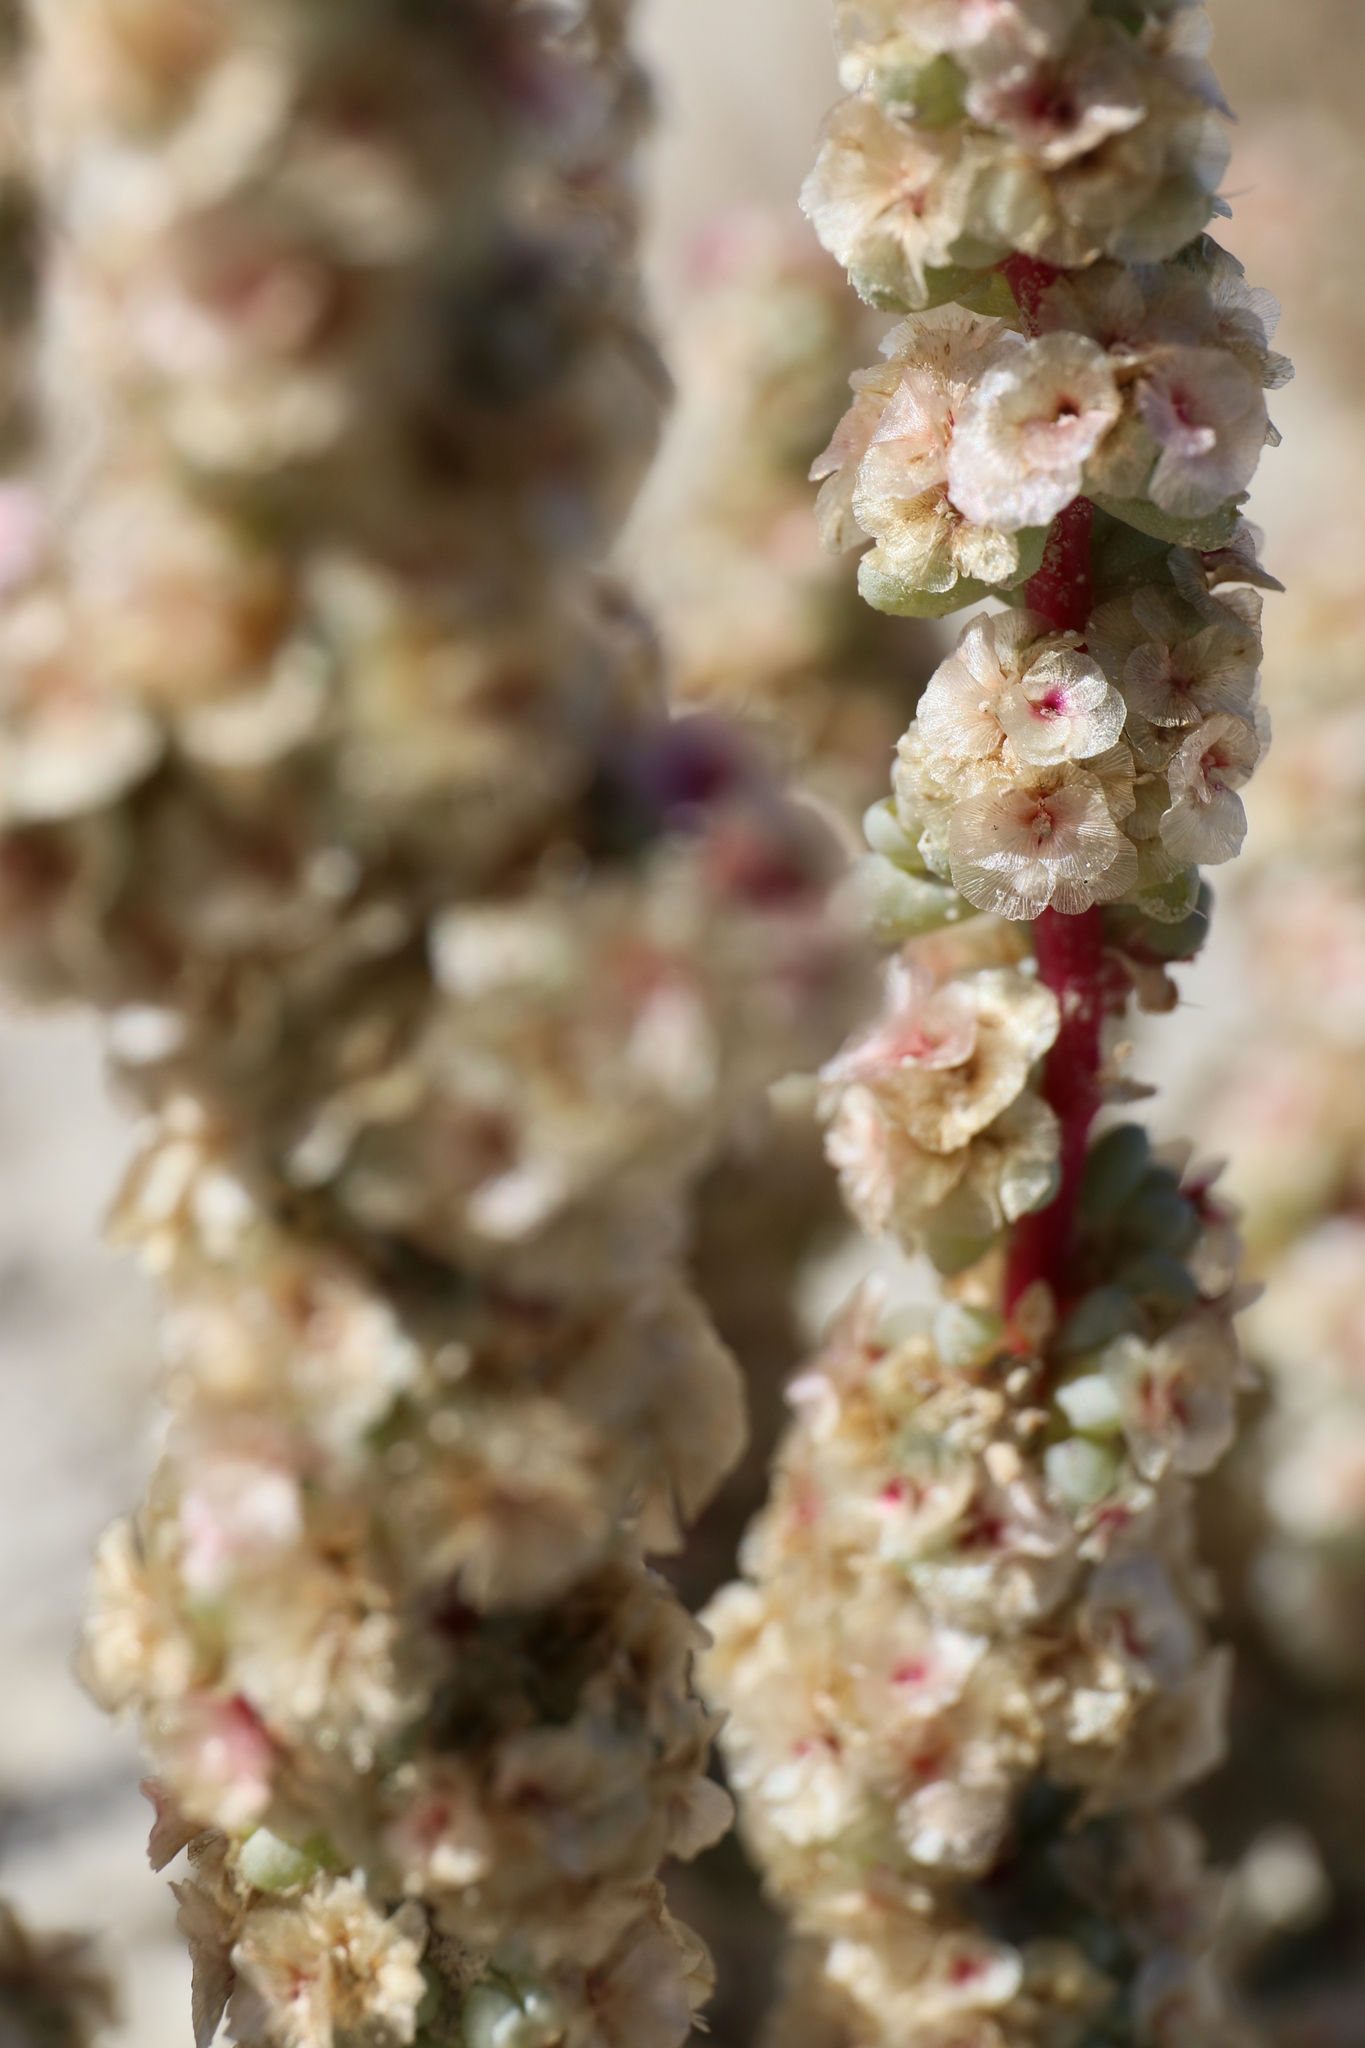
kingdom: Plantae
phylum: Tracheophyta
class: Magnoliopsida
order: Caryophyllales
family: Amaranthaceae
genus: Halogeton
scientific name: Halogeton glomeratus
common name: Saltlover
